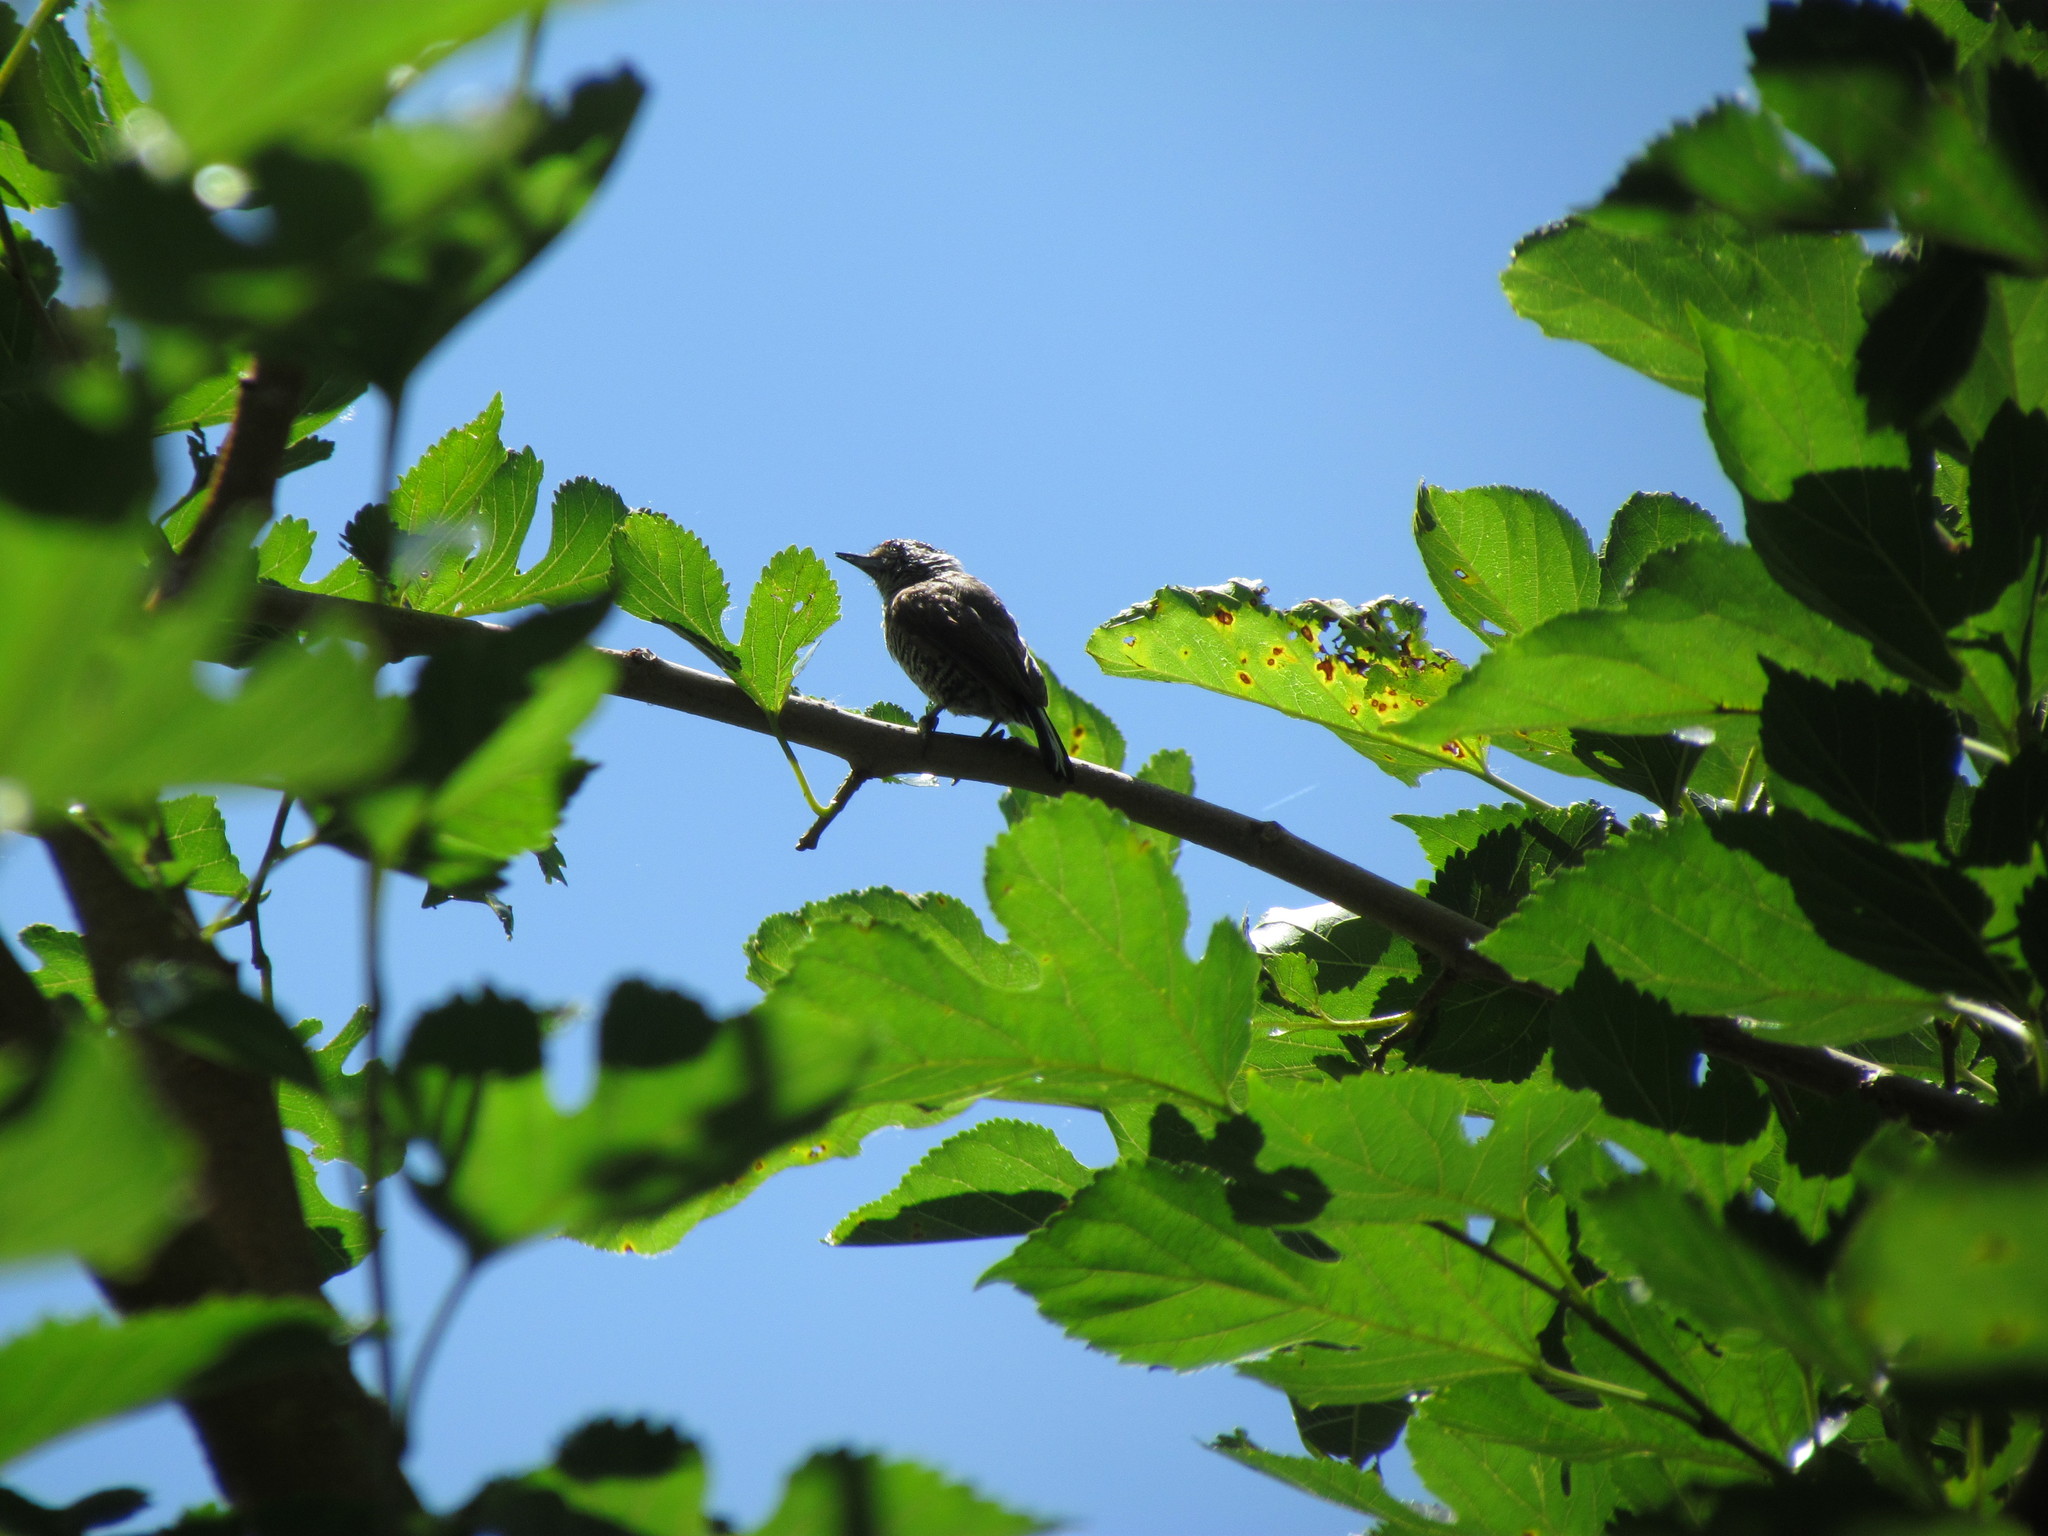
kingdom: Animalia
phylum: Chordata
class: Aves
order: Piciformes
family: Picidae
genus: Picumnus
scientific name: Picumnus cirratus
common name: White-barred piculet
